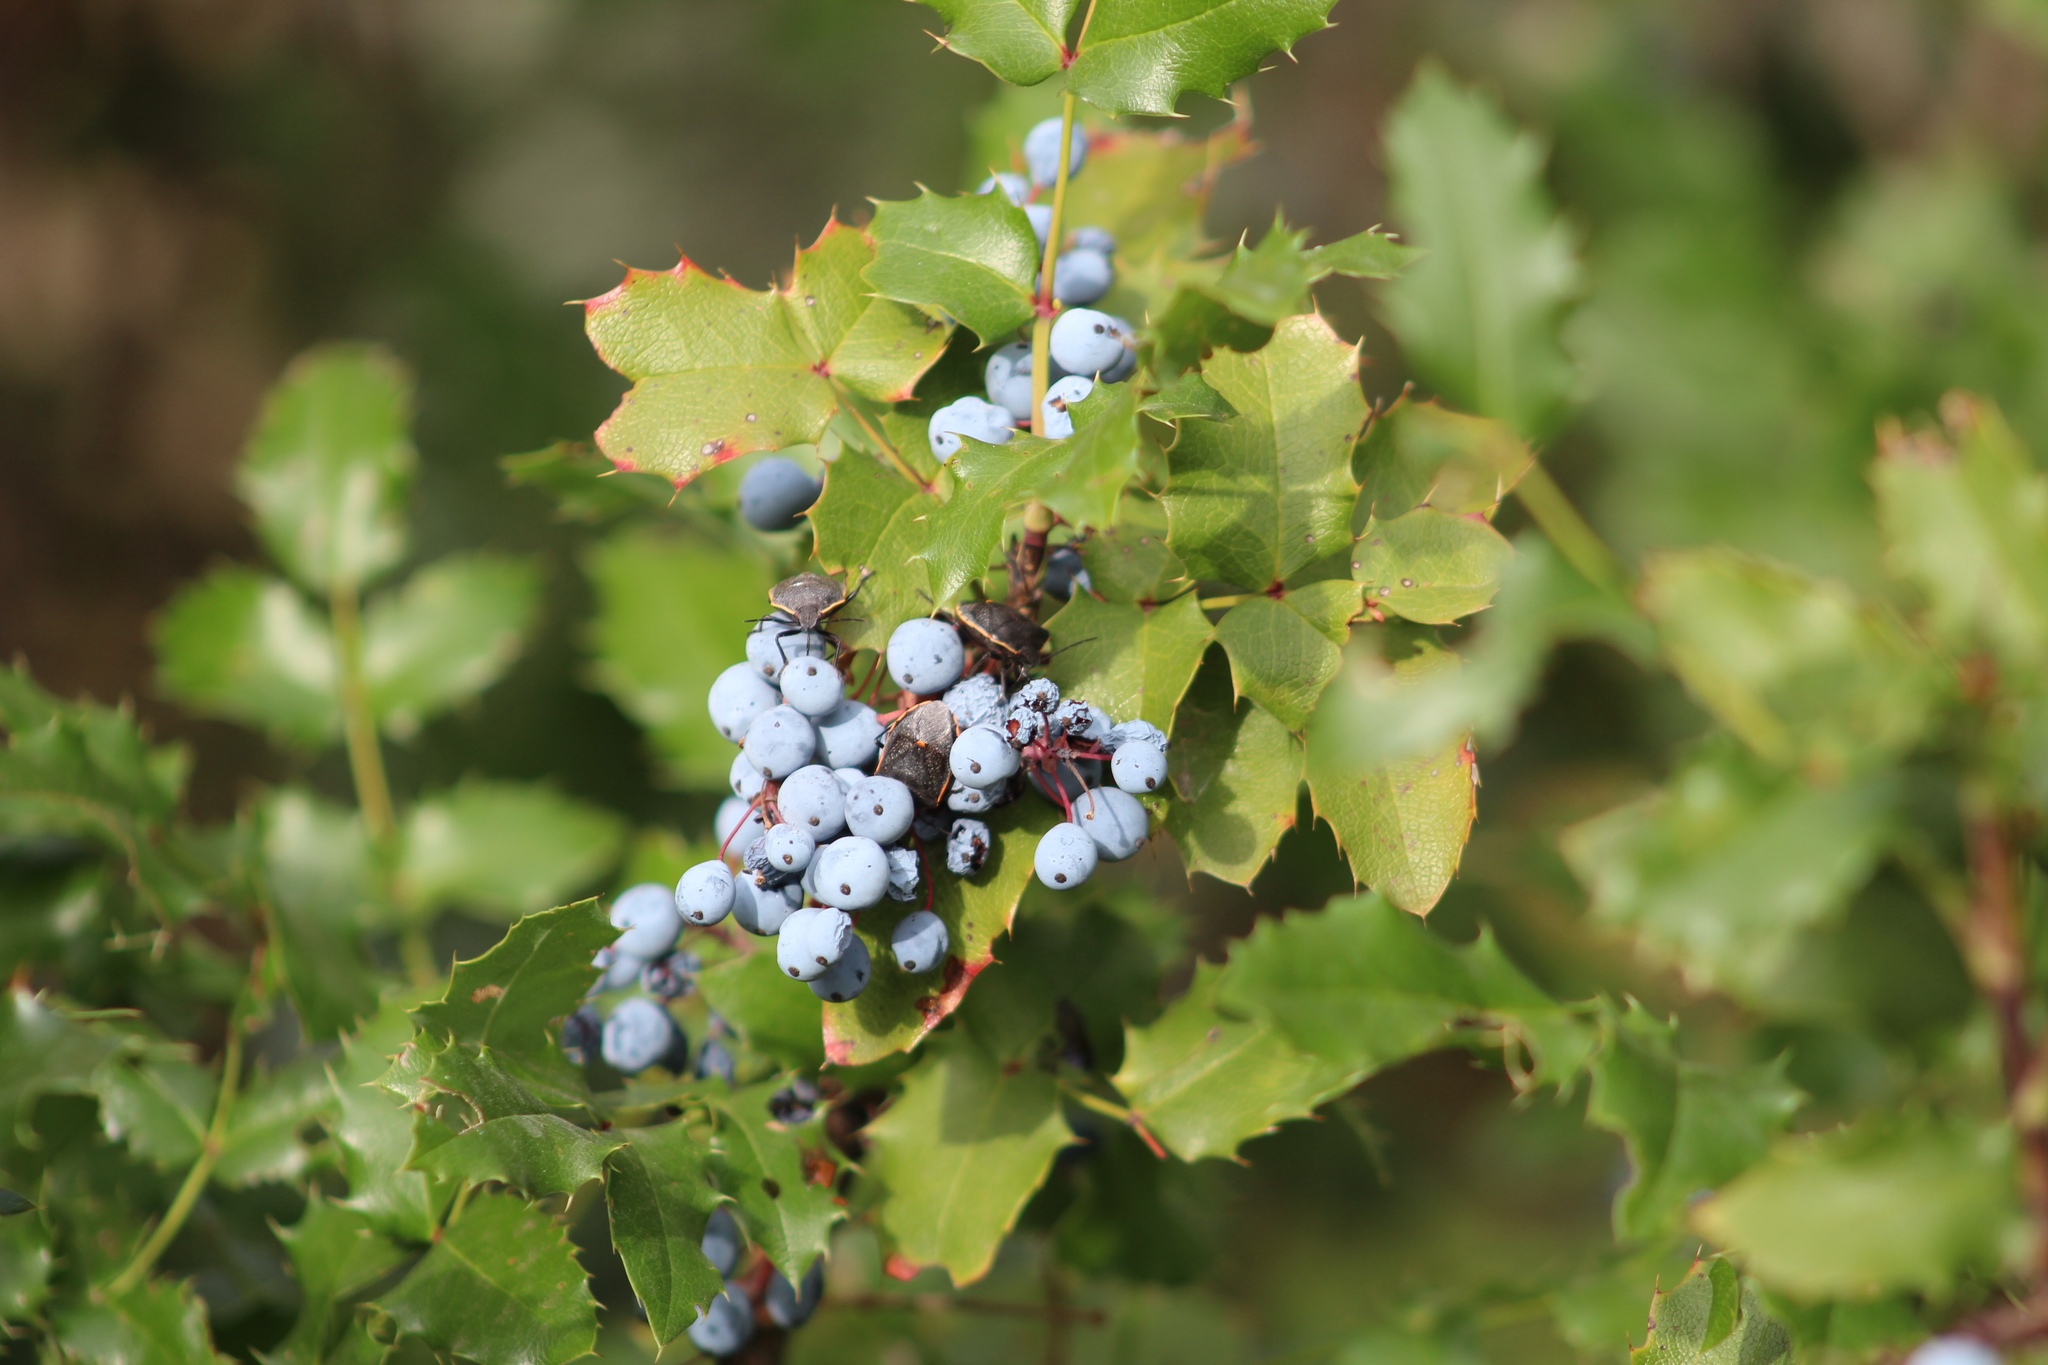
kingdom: Plantae
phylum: Tracheophyta
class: Magnoliopsida
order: Ranunculales
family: Berberidaceae
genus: Mahonia
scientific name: Mahonia aquifolium
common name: Oregon-grape
